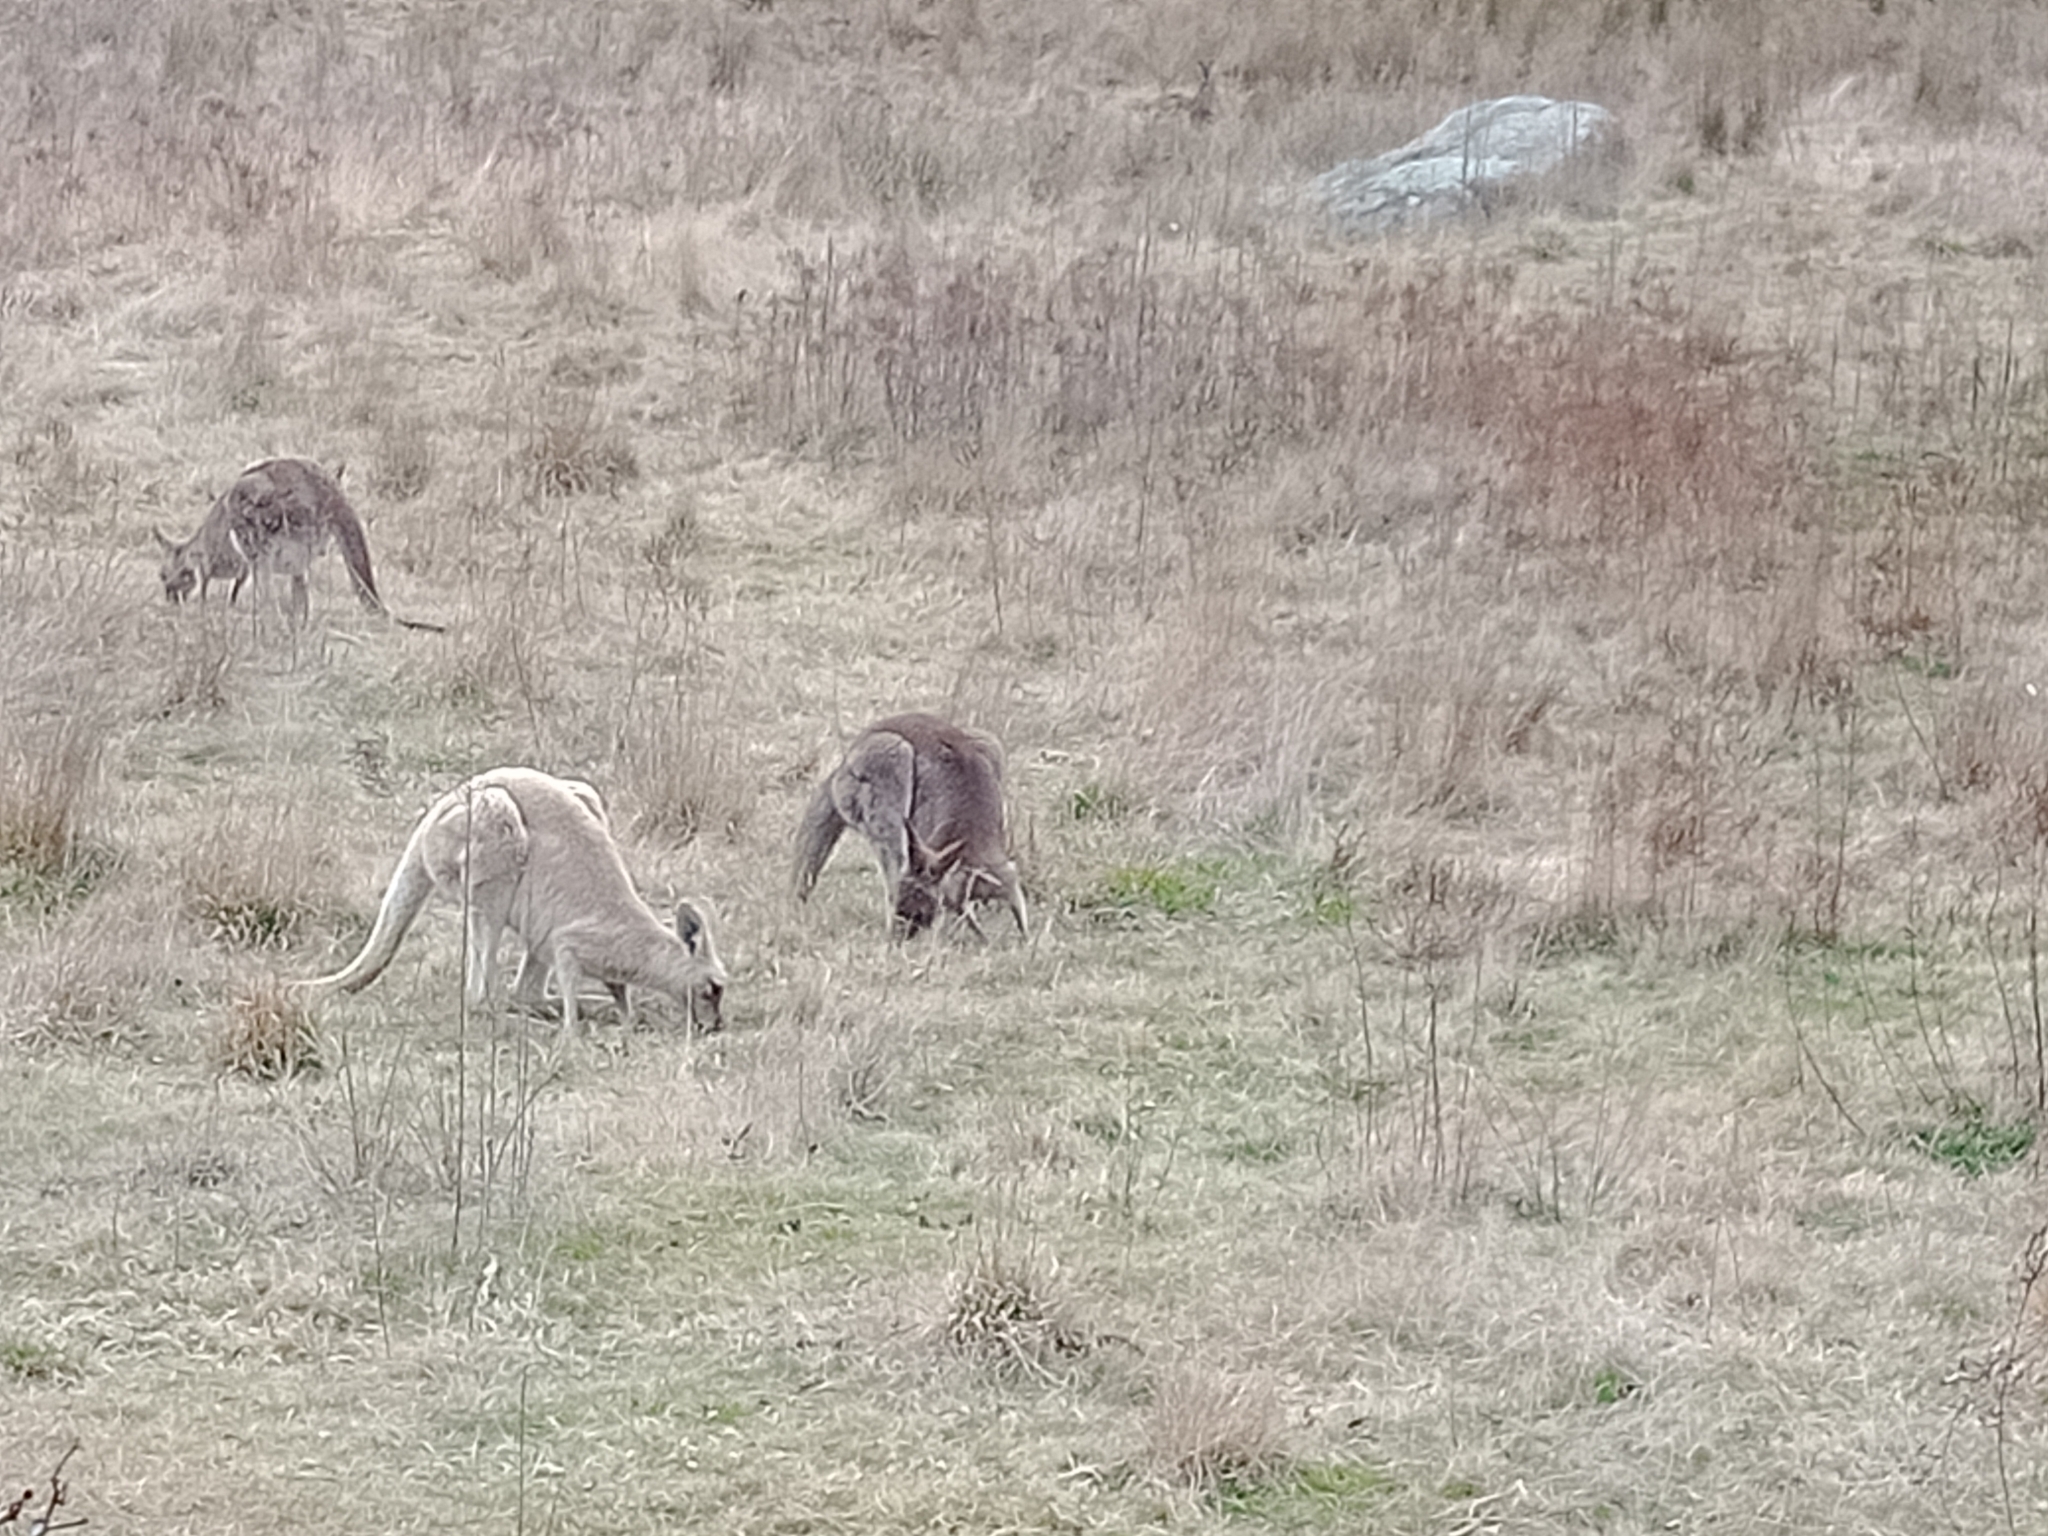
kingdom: Animalia
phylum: Chordata
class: Mammalia
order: Diprotodontia
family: Macropodidae
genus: Macropus
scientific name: Macropus giganteus
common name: Eastern grey kangaroo
